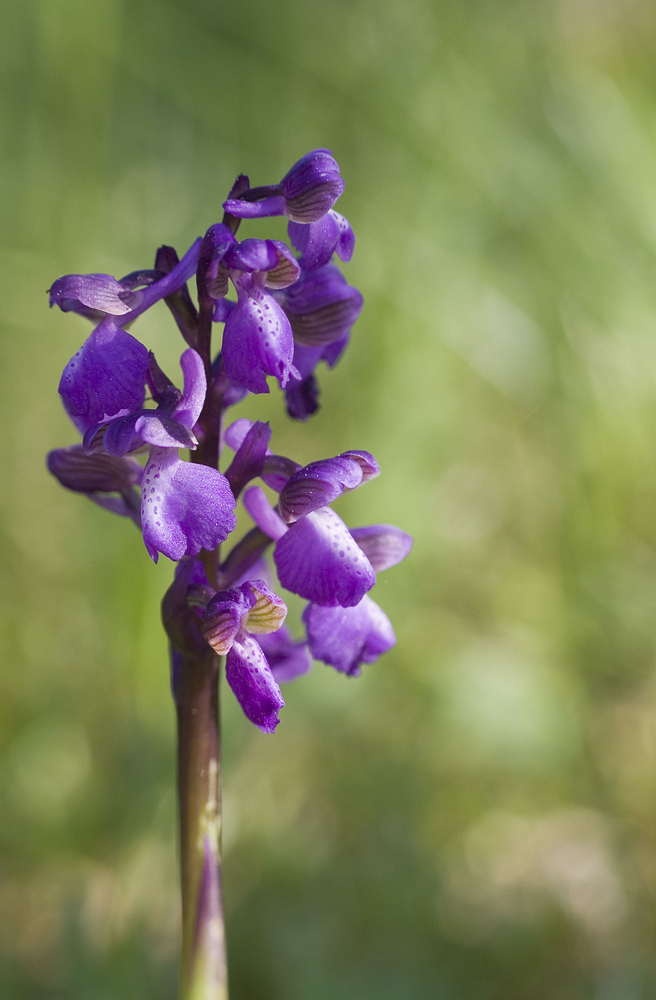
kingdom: Plantae
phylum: Tracheophyta
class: Liliopsida
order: Asparagales
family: Orchidaceae
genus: Anacamptis
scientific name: Anacamptis morio
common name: Green-winged orchid
